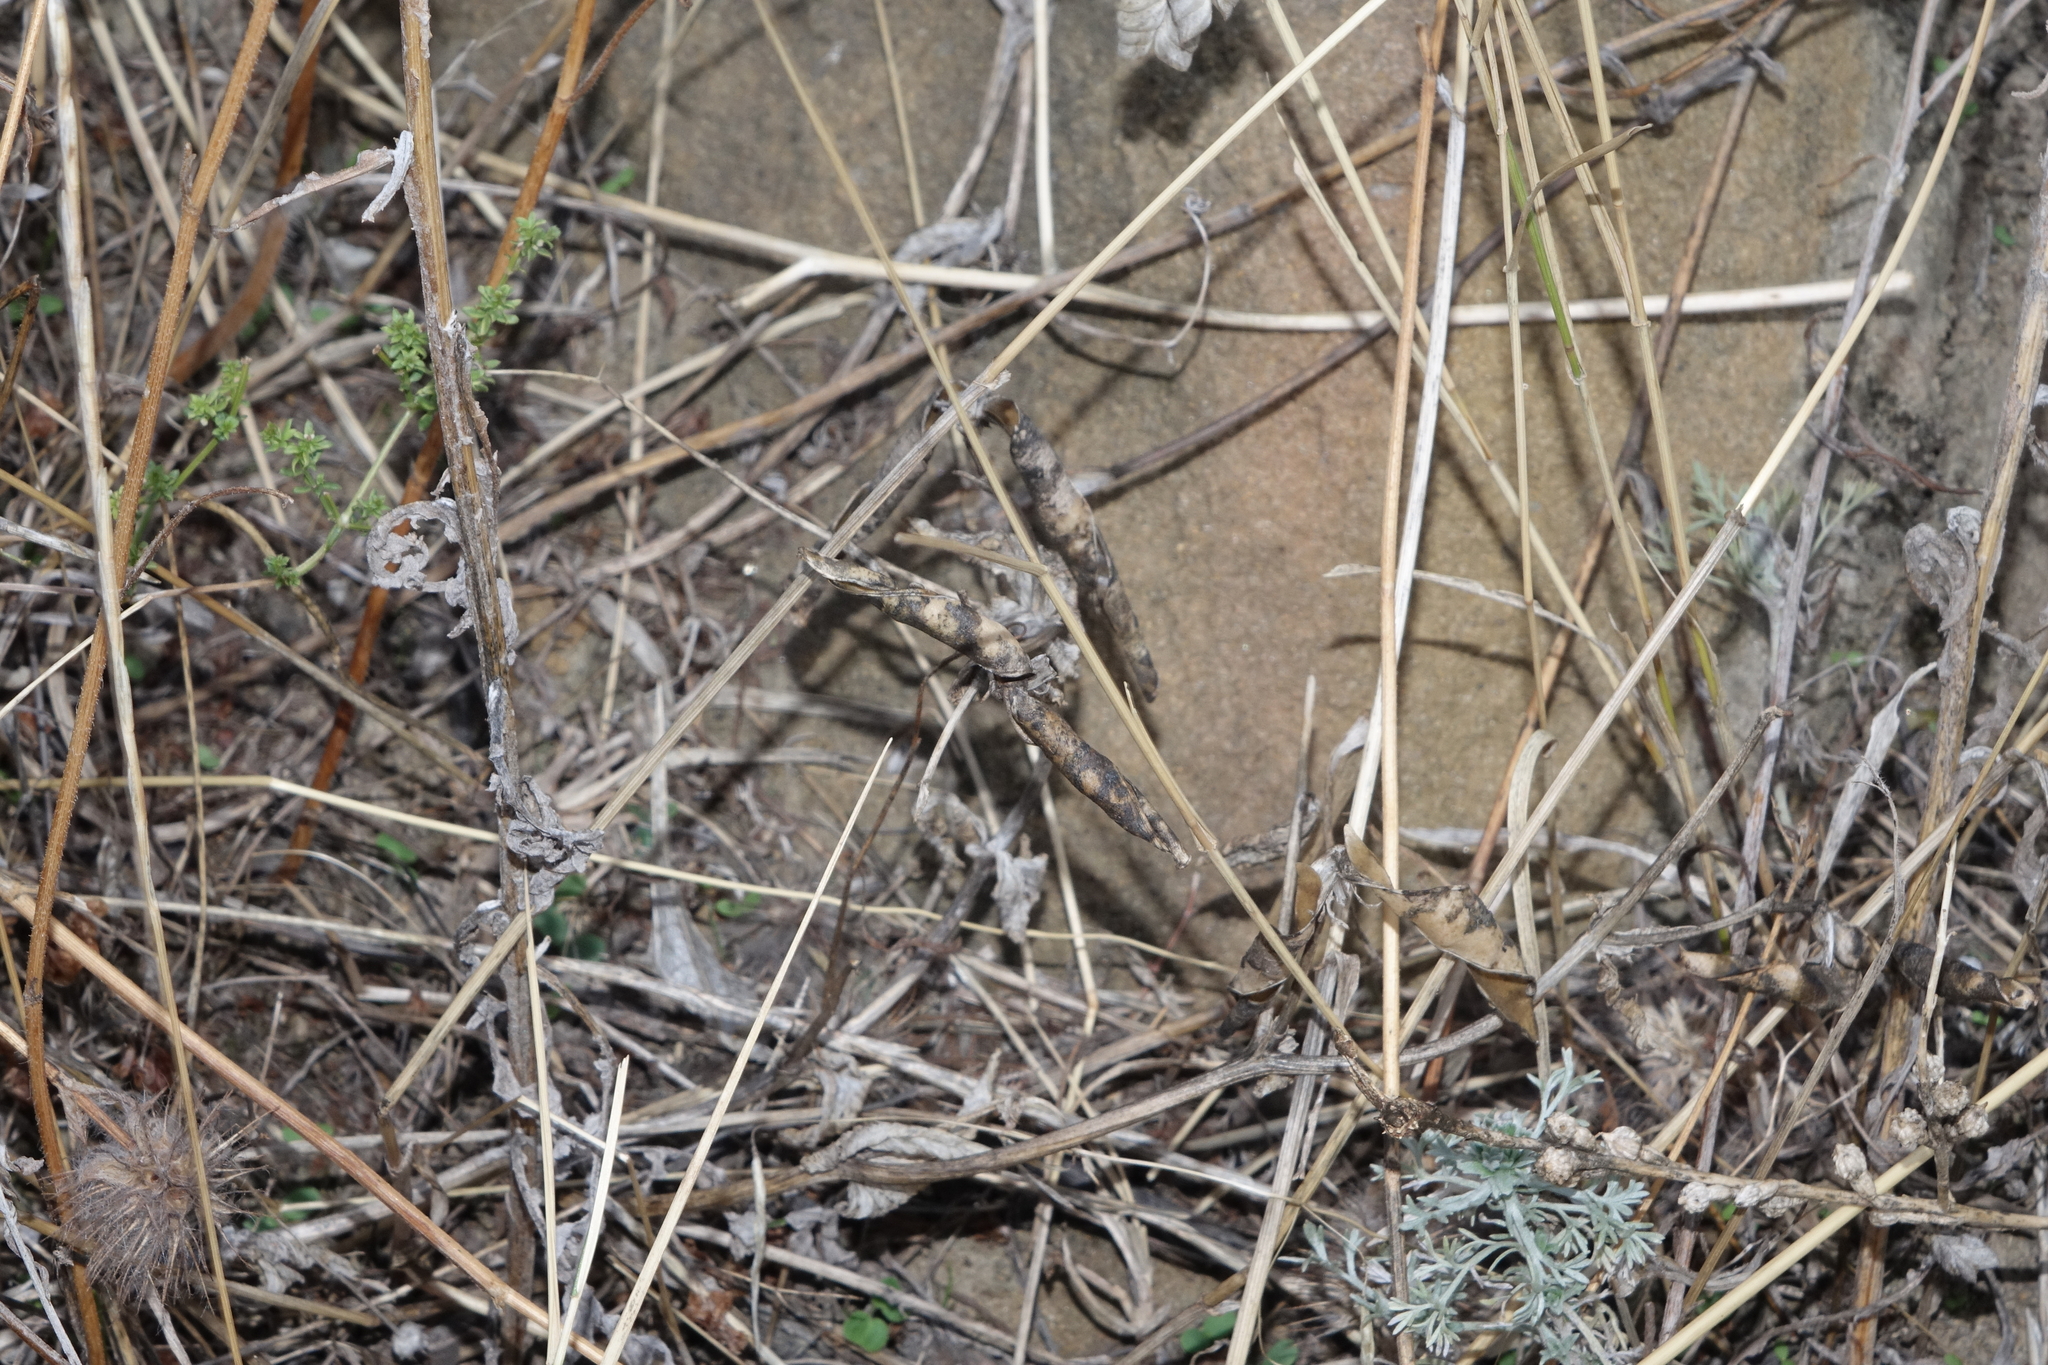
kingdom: Plantae
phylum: Tracheophyta
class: Magnoliopsida
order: Fabales
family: Fabaceae
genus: Lathyrus
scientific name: Lathyrus oleraceus
